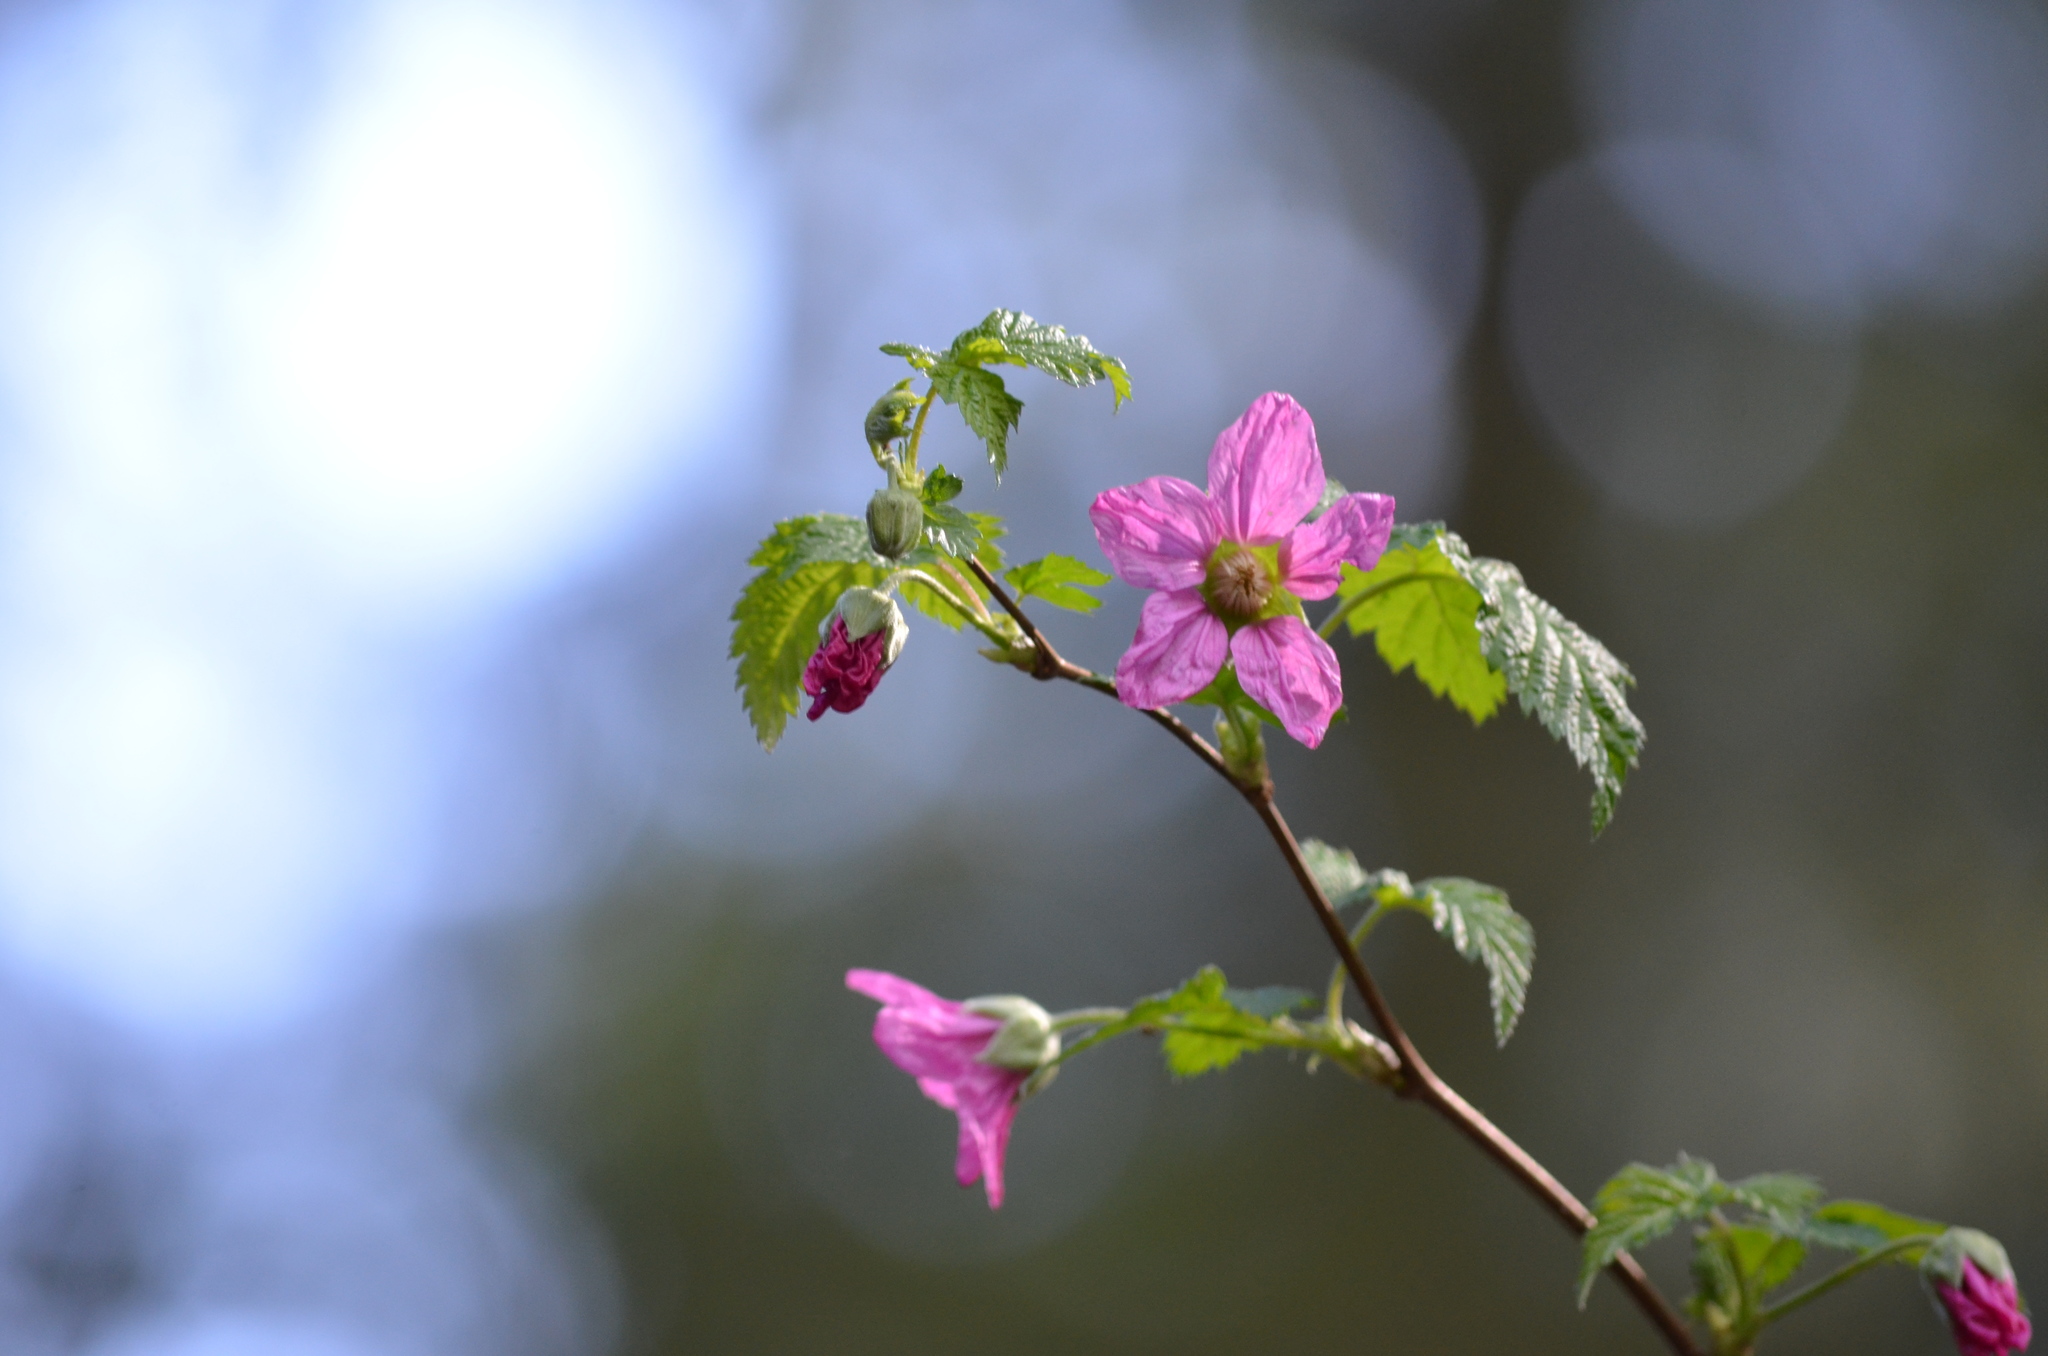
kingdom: Plantae
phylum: Tracheophyta
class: Magnoliopsida
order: Rosales
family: Rosaceae
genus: Rubus
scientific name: Rubus spectabilis
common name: Salmonberry
